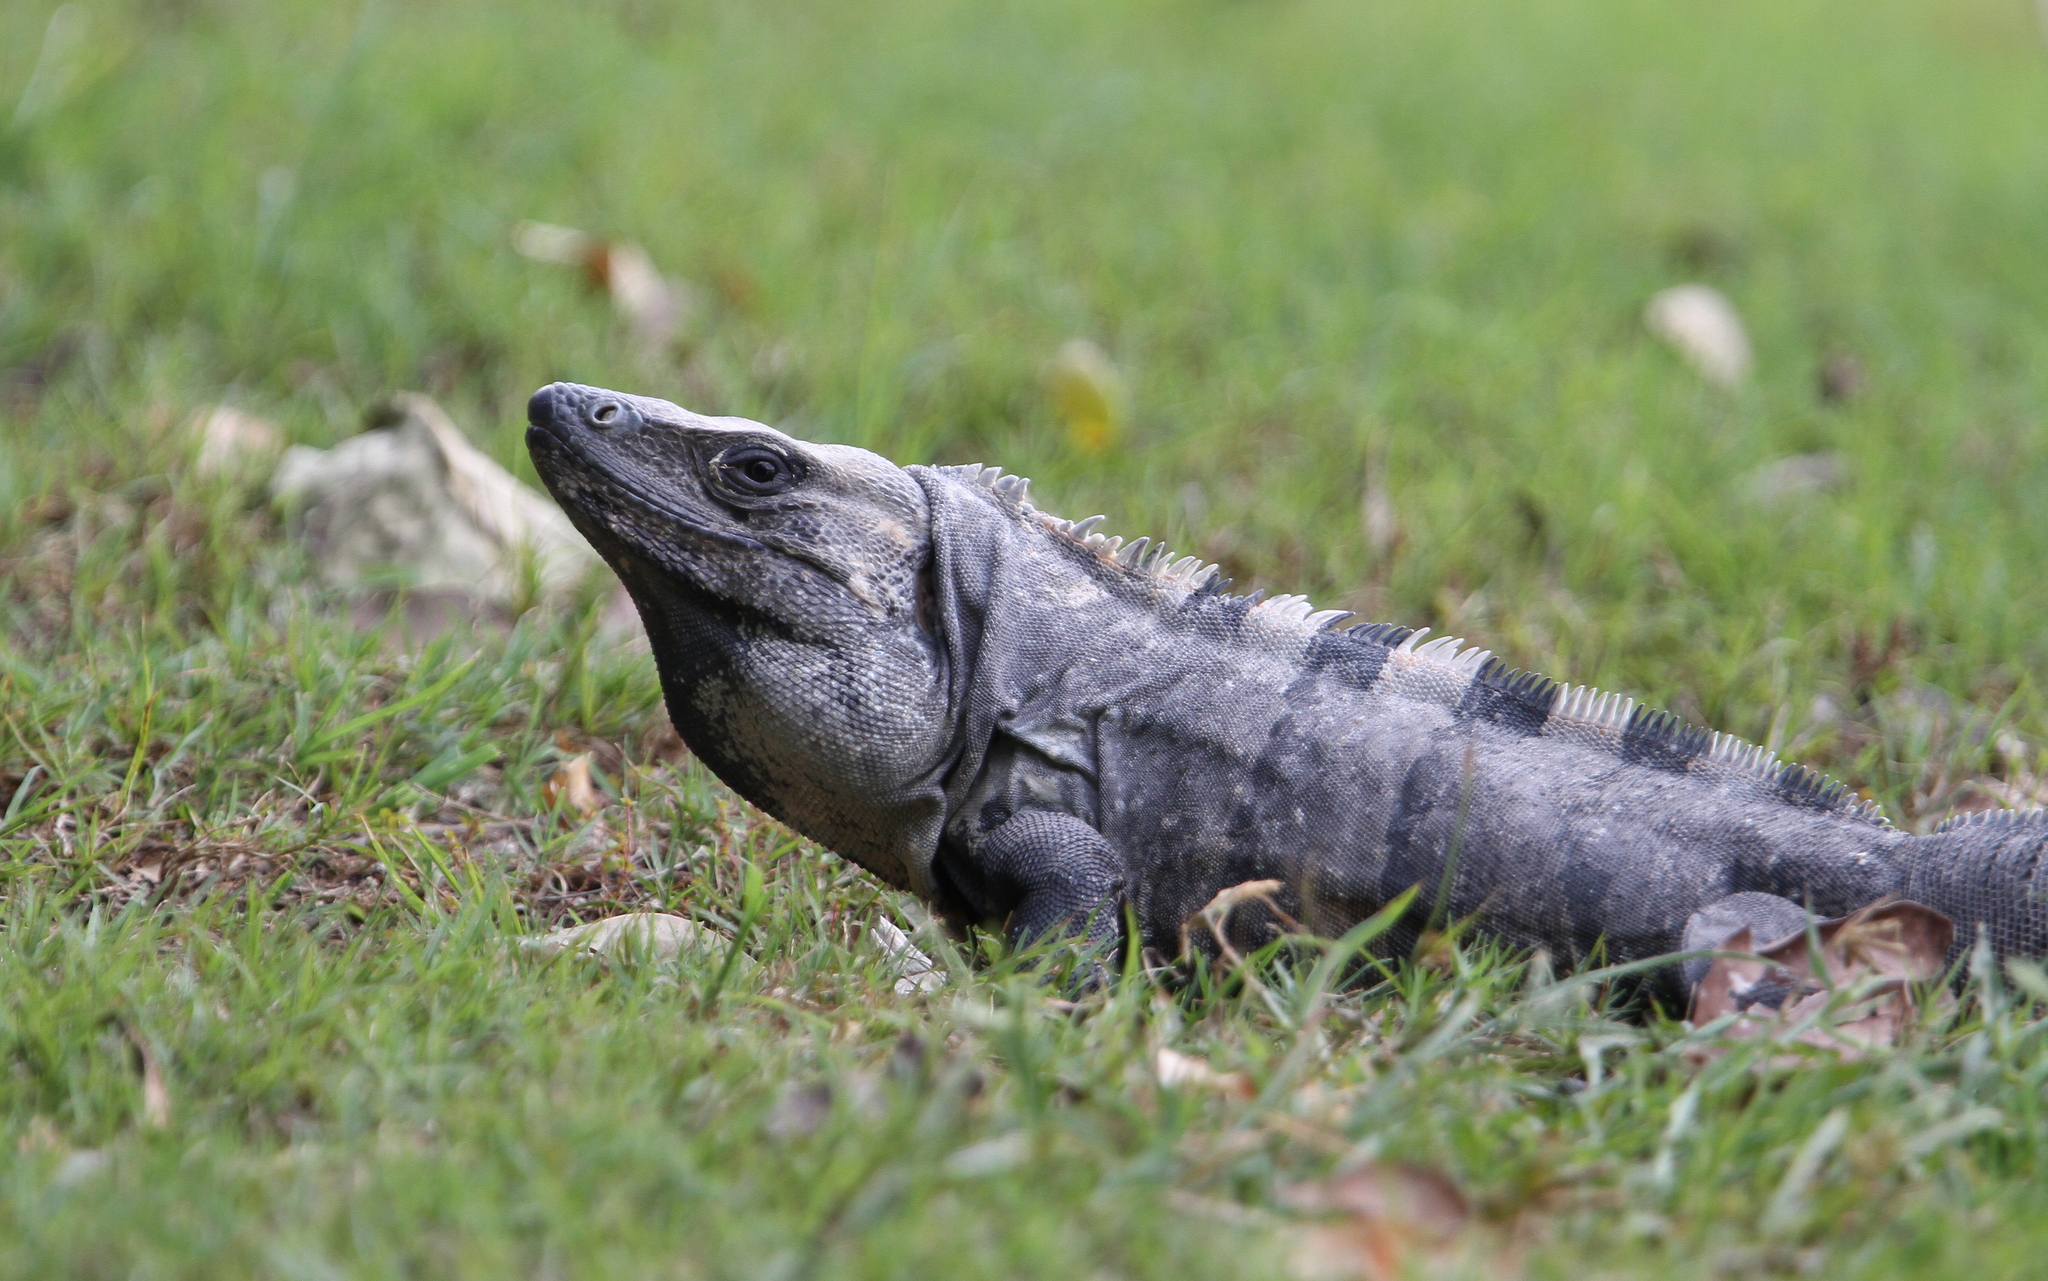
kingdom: Animalia
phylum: Chordata
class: Squamata
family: Iguanidae
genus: Ctenosaura
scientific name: Ctenosaura similis
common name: Black spiny-tailed iguana
